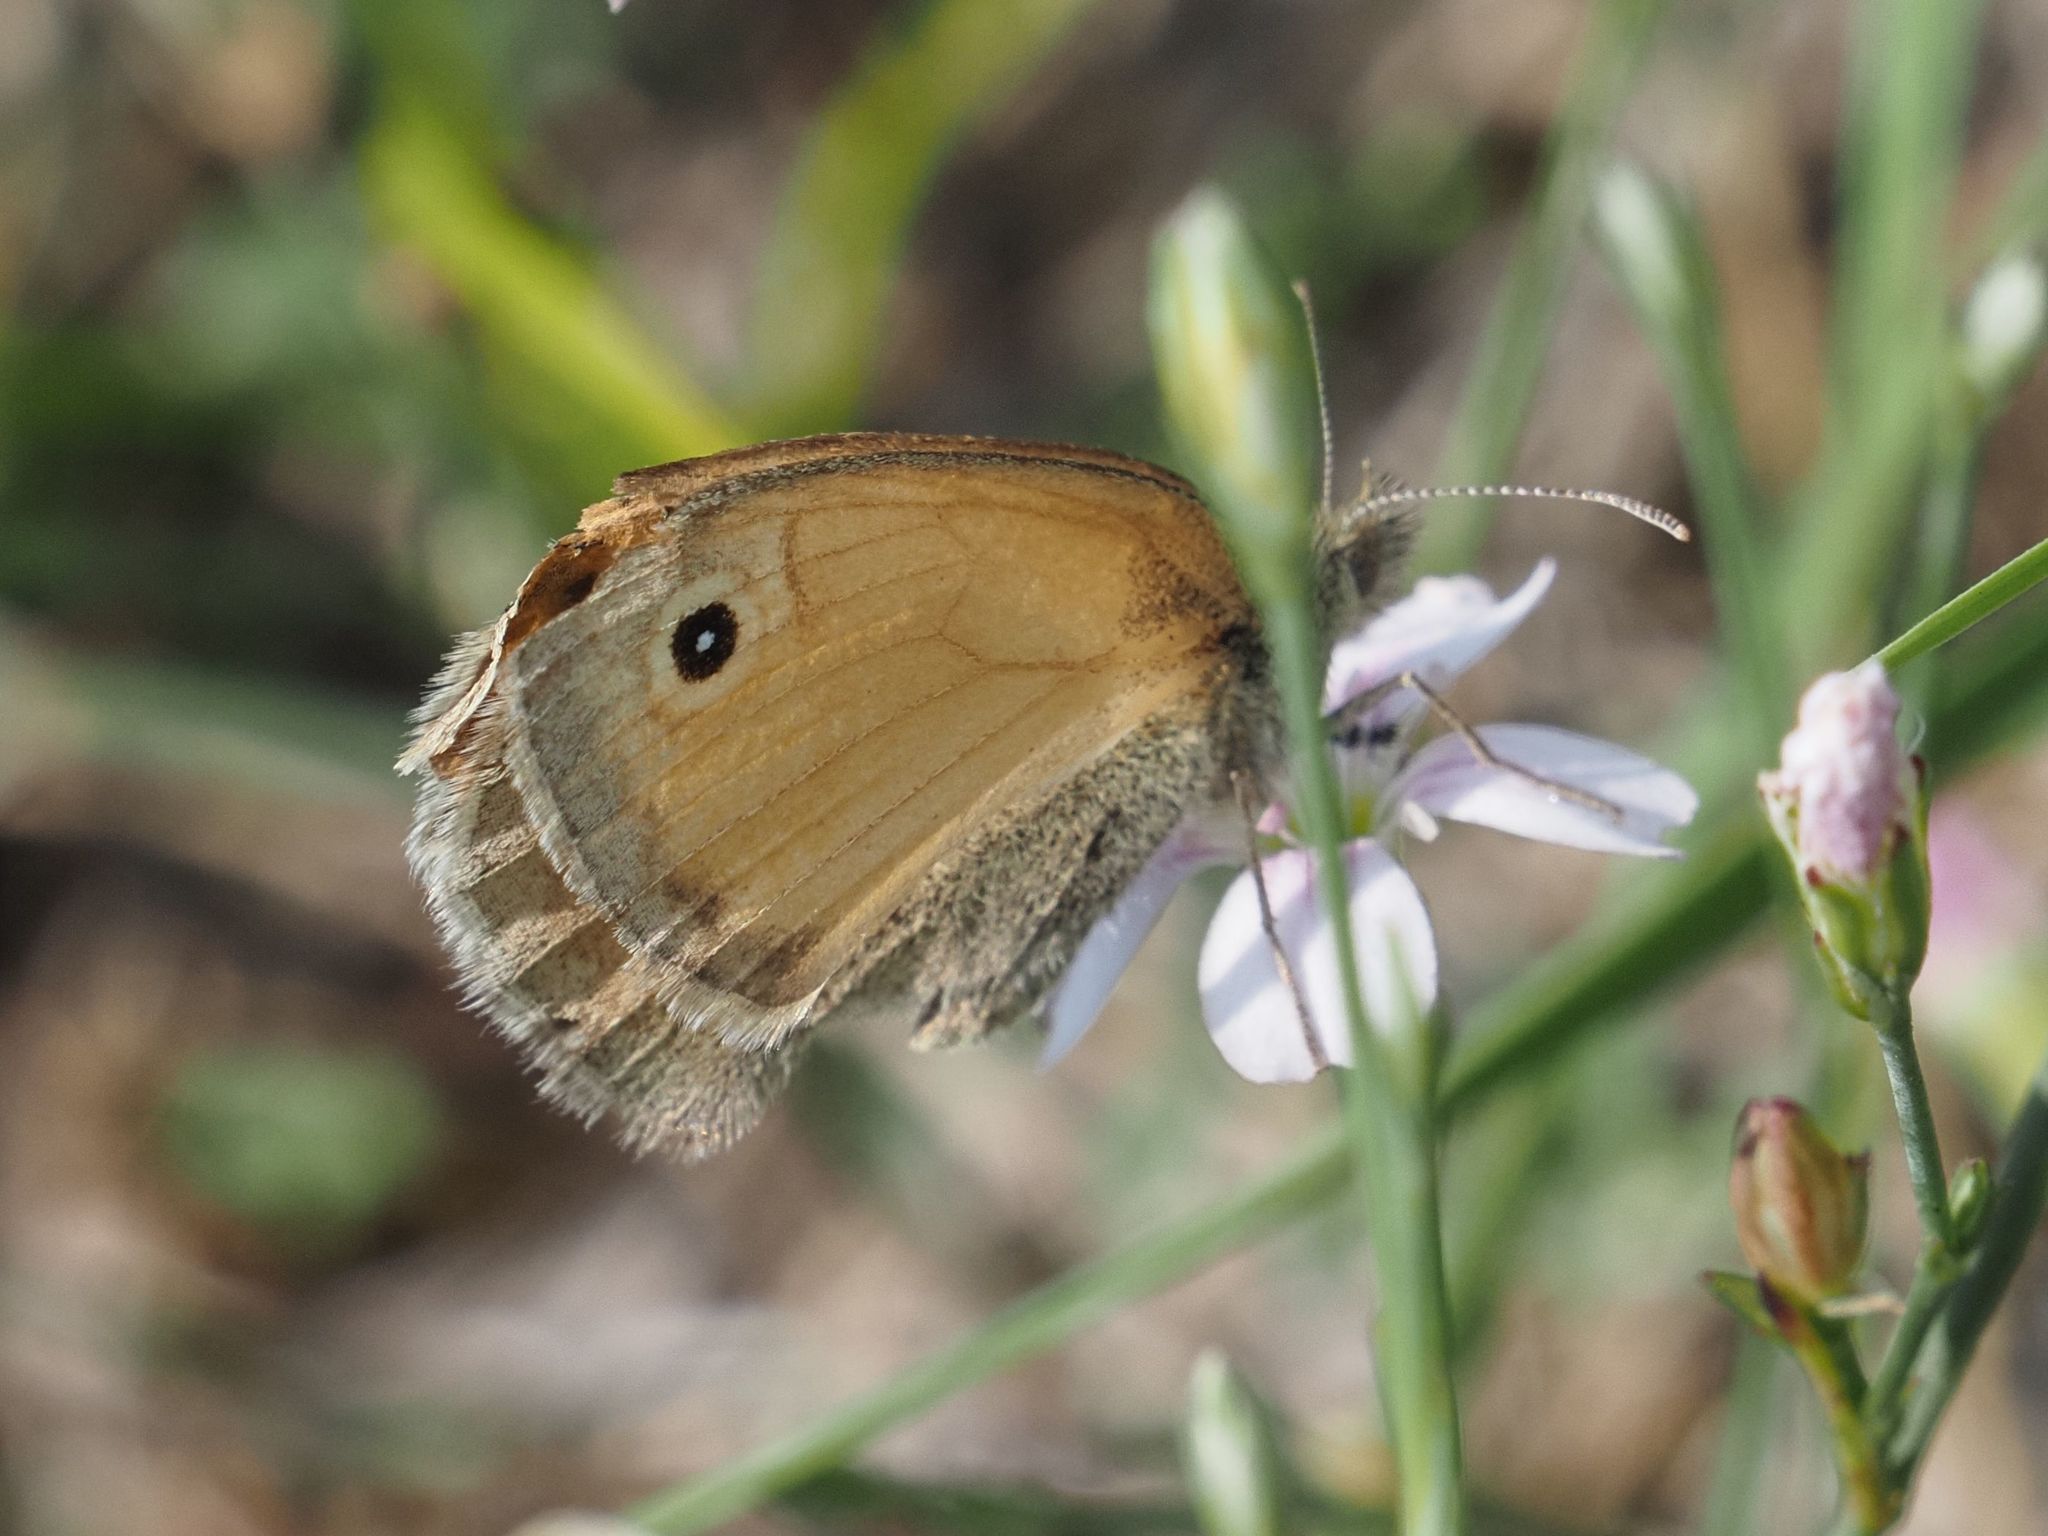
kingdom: Animalia
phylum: Arthropoda
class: Insecta
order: Lepidoptera
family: Nymphalidae
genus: Coenonympha
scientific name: Coenonympha pamphilus
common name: Small heath
